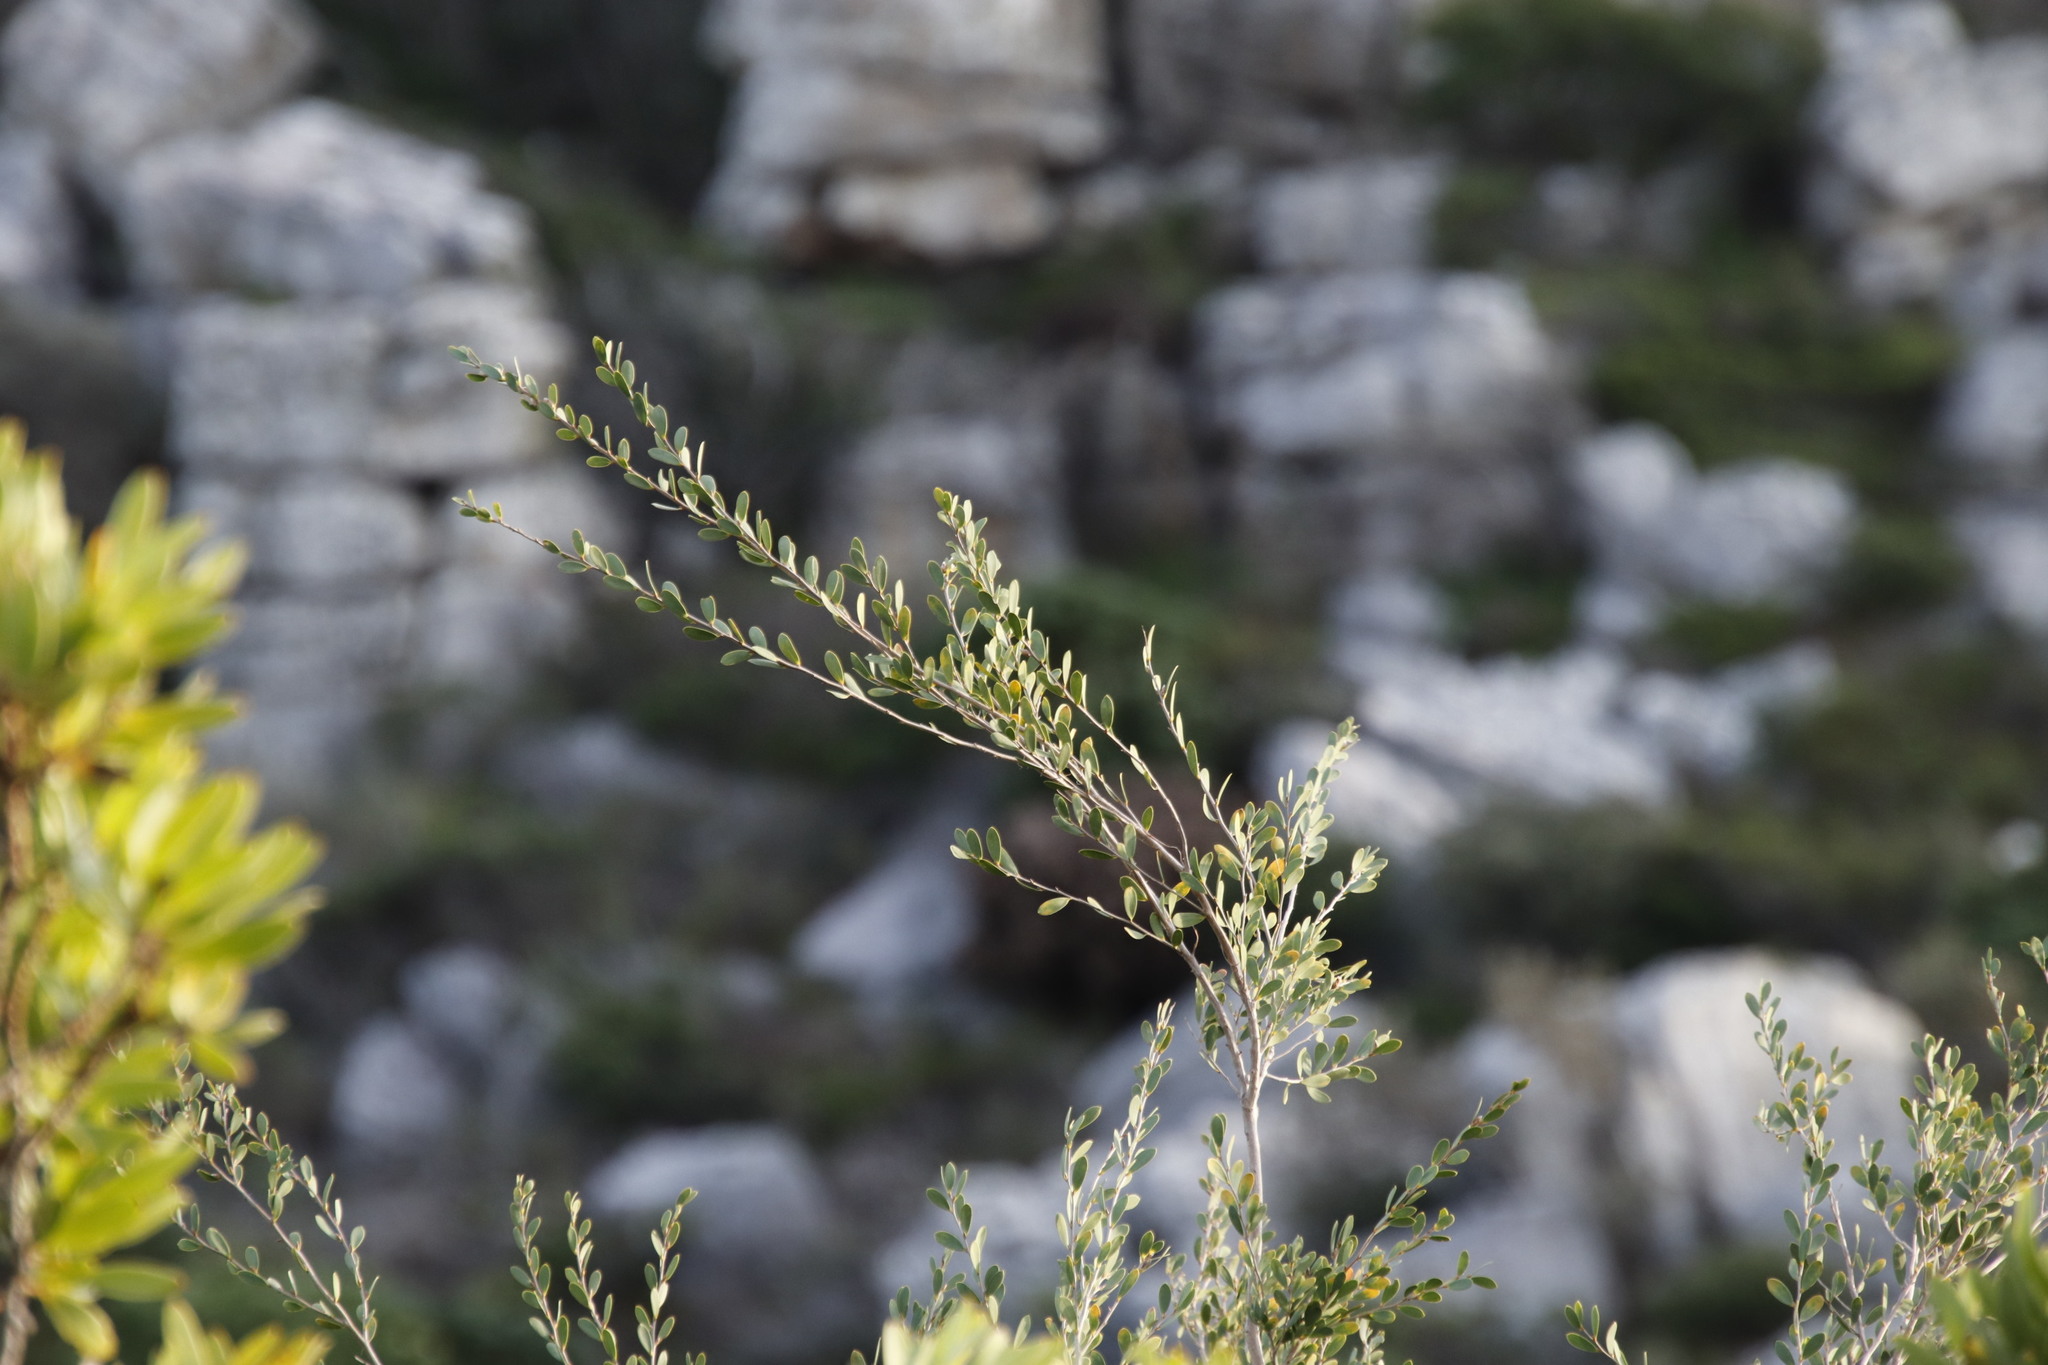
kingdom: Plantae
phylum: Tracheophyta
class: Magnoliopsida
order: Myrtales
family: Myrtaceae
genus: Leptospermum
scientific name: Leptospermum laevigatum
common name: Australian teatree
